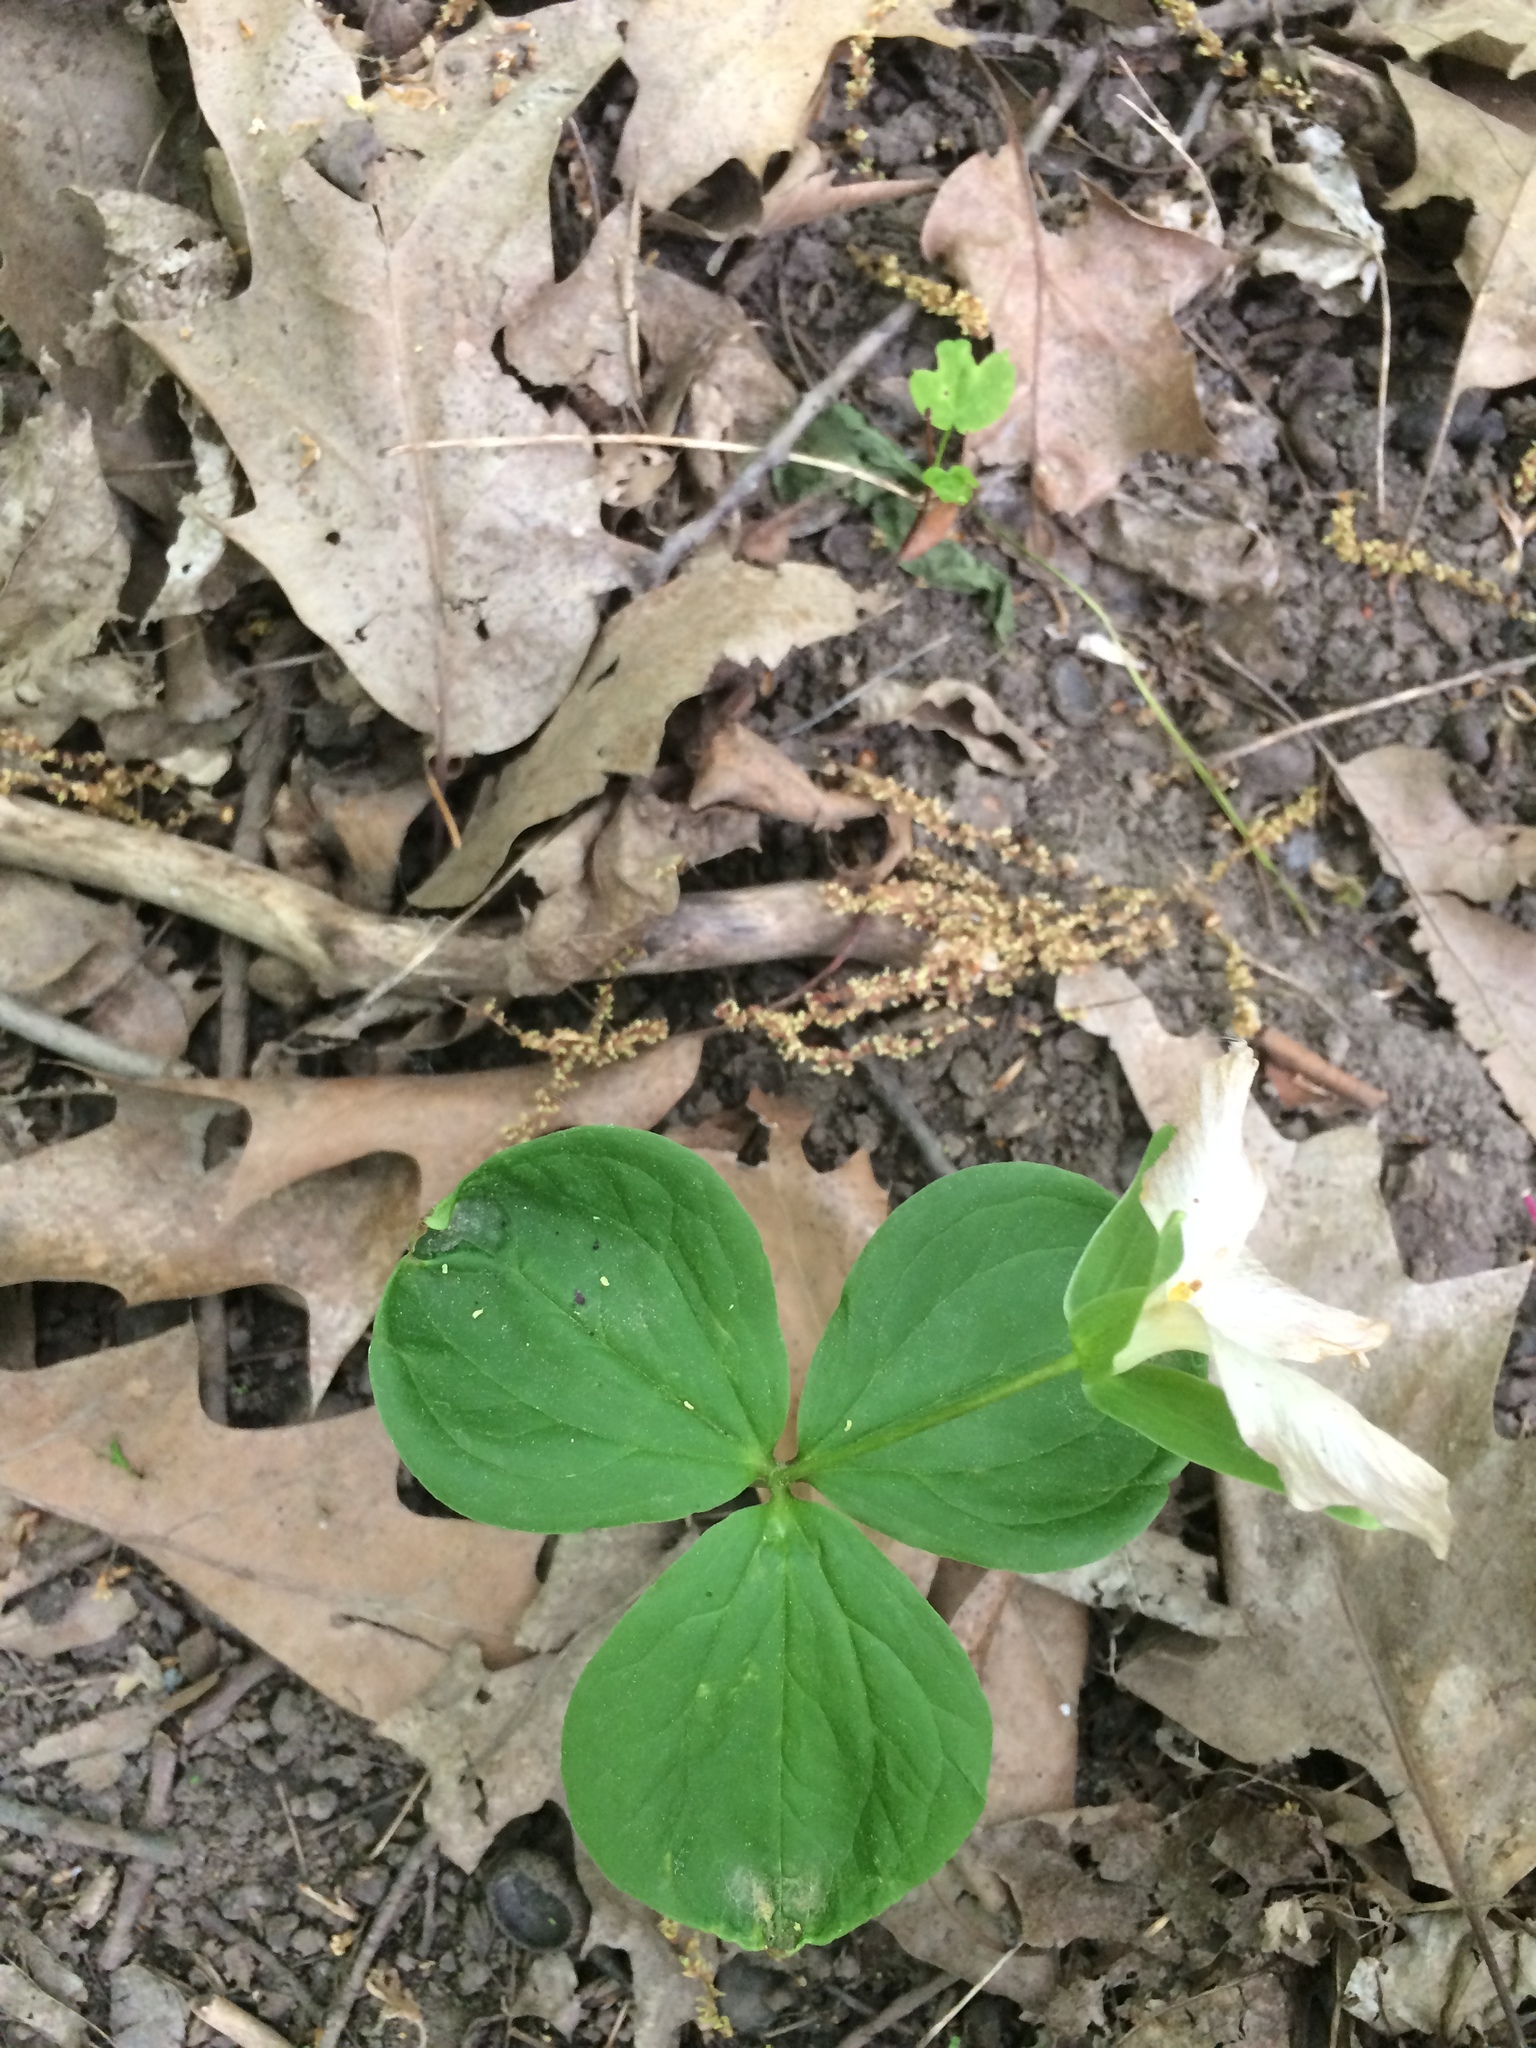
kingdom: Plantae
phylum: Tracheophyta
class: Liliopsida
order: Liliales
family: Melanthiaceae
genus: Trillium
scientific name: Trillium grandiflorum
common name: Great white trillium
